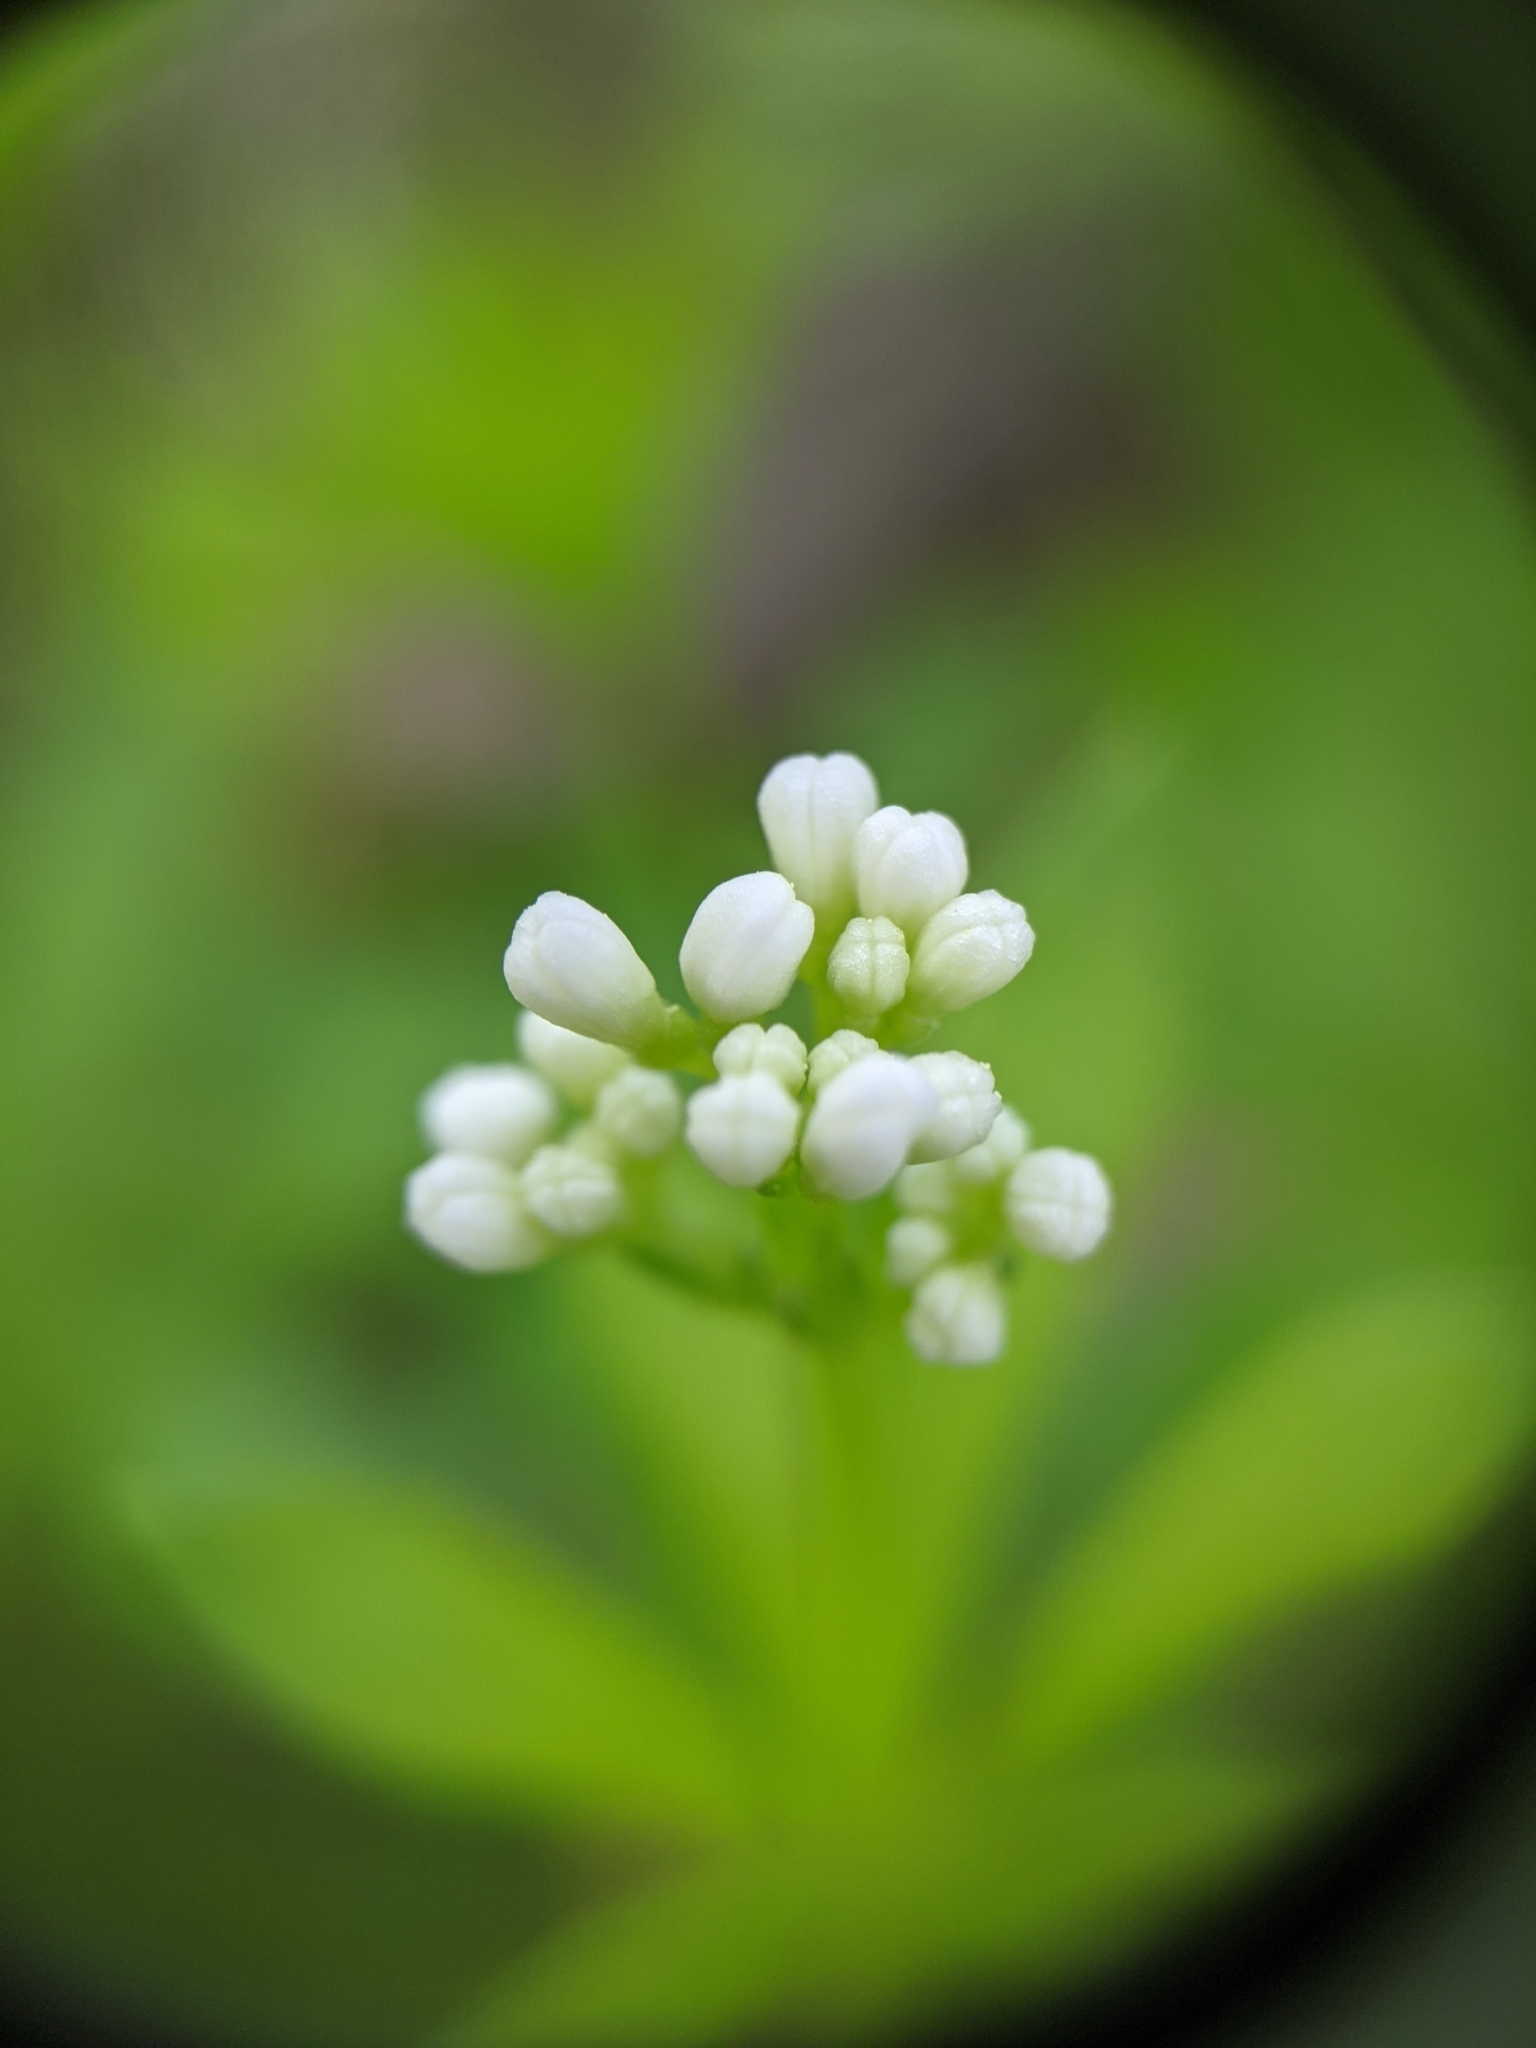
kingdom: Plantae
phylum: Tracheophyta
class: Magnoliopsida
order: Gentianales
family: Rubiaceae
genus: Galium
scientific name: Galium odoratum
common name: Sweet woodruff
